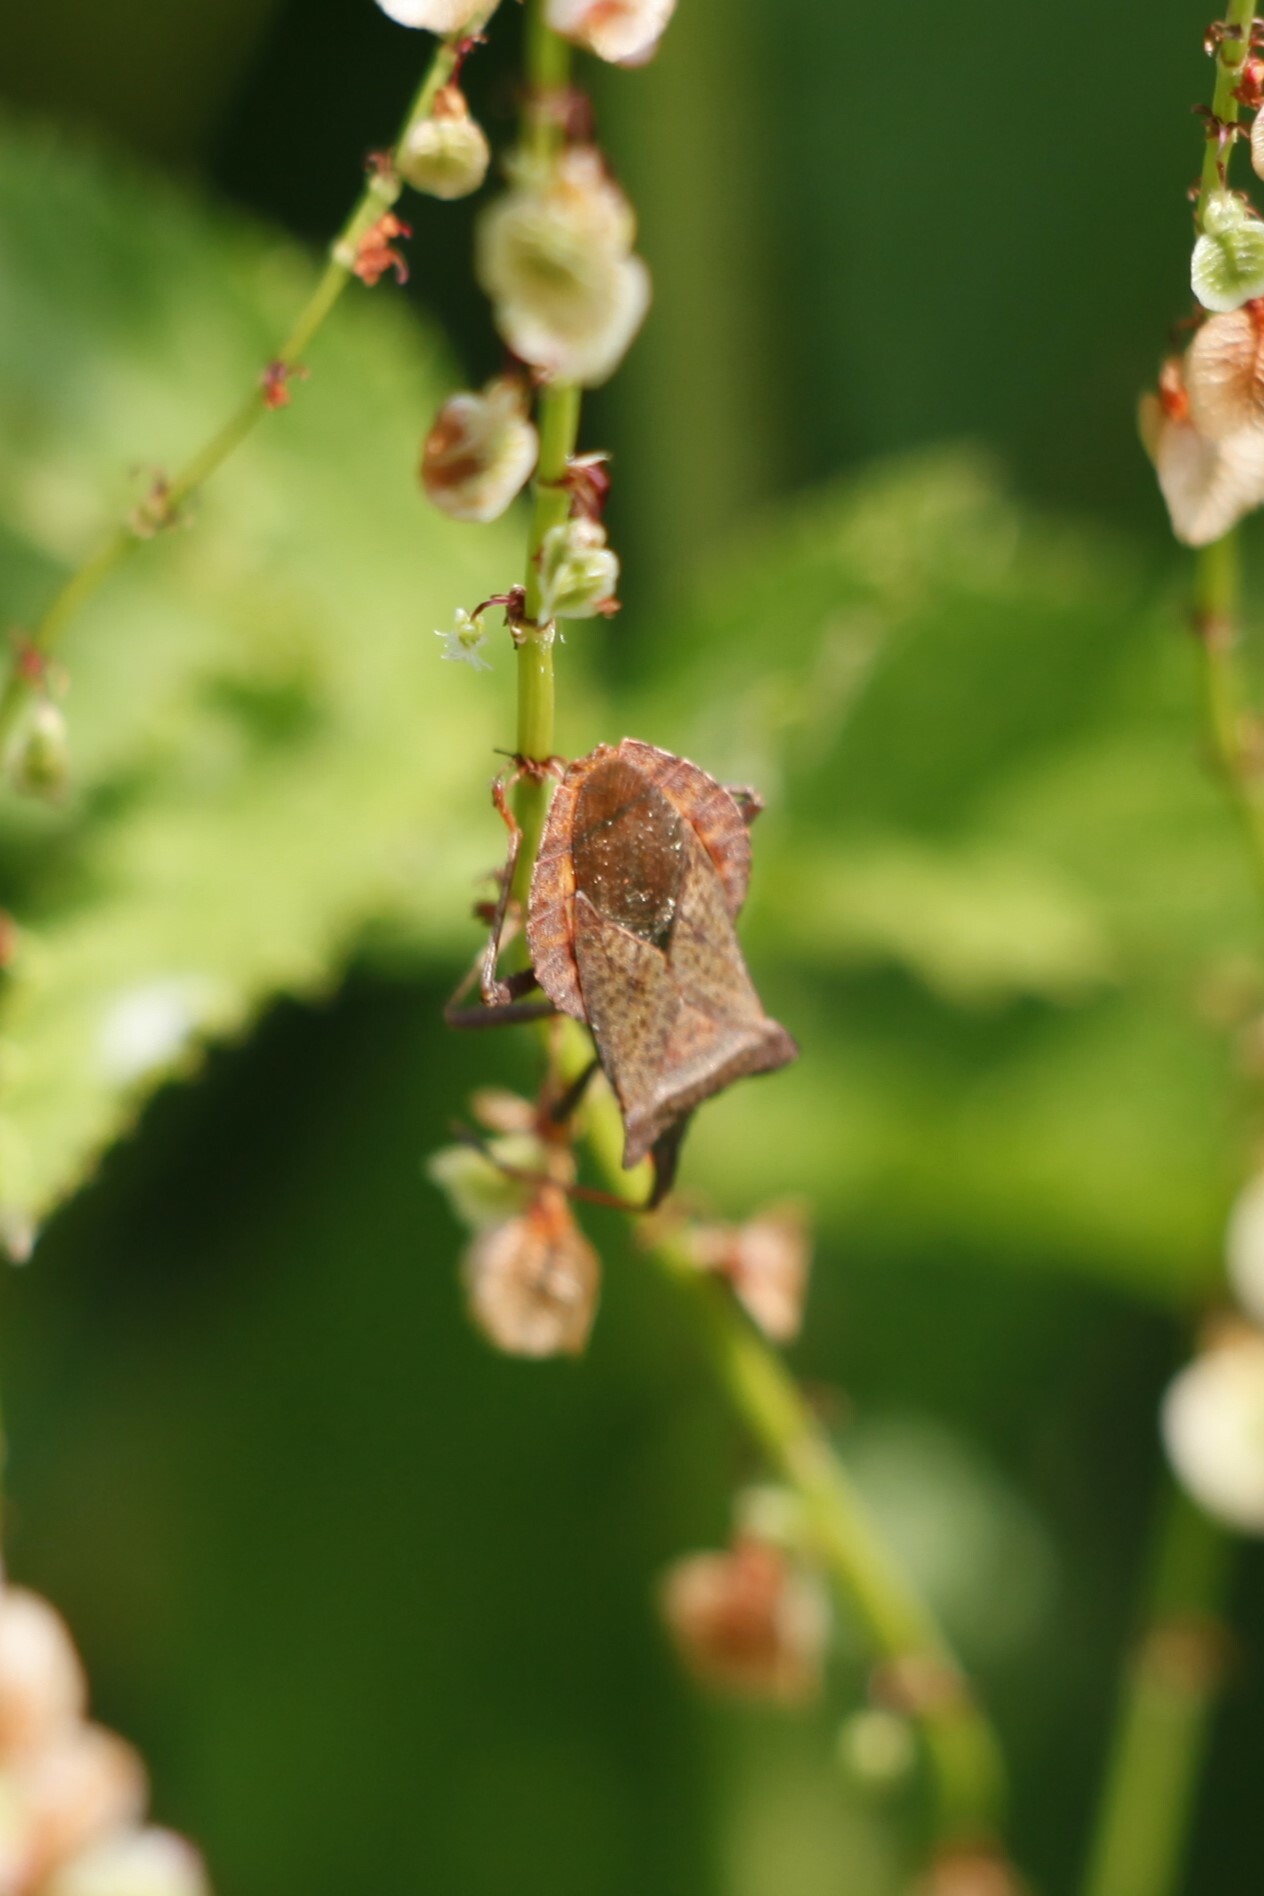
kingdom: Animalia
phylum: Arthropoda
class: Insecta
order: Hemiptera
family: Coreidae
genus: Coreus
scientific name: Coreus marginatus
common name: Dock bug
